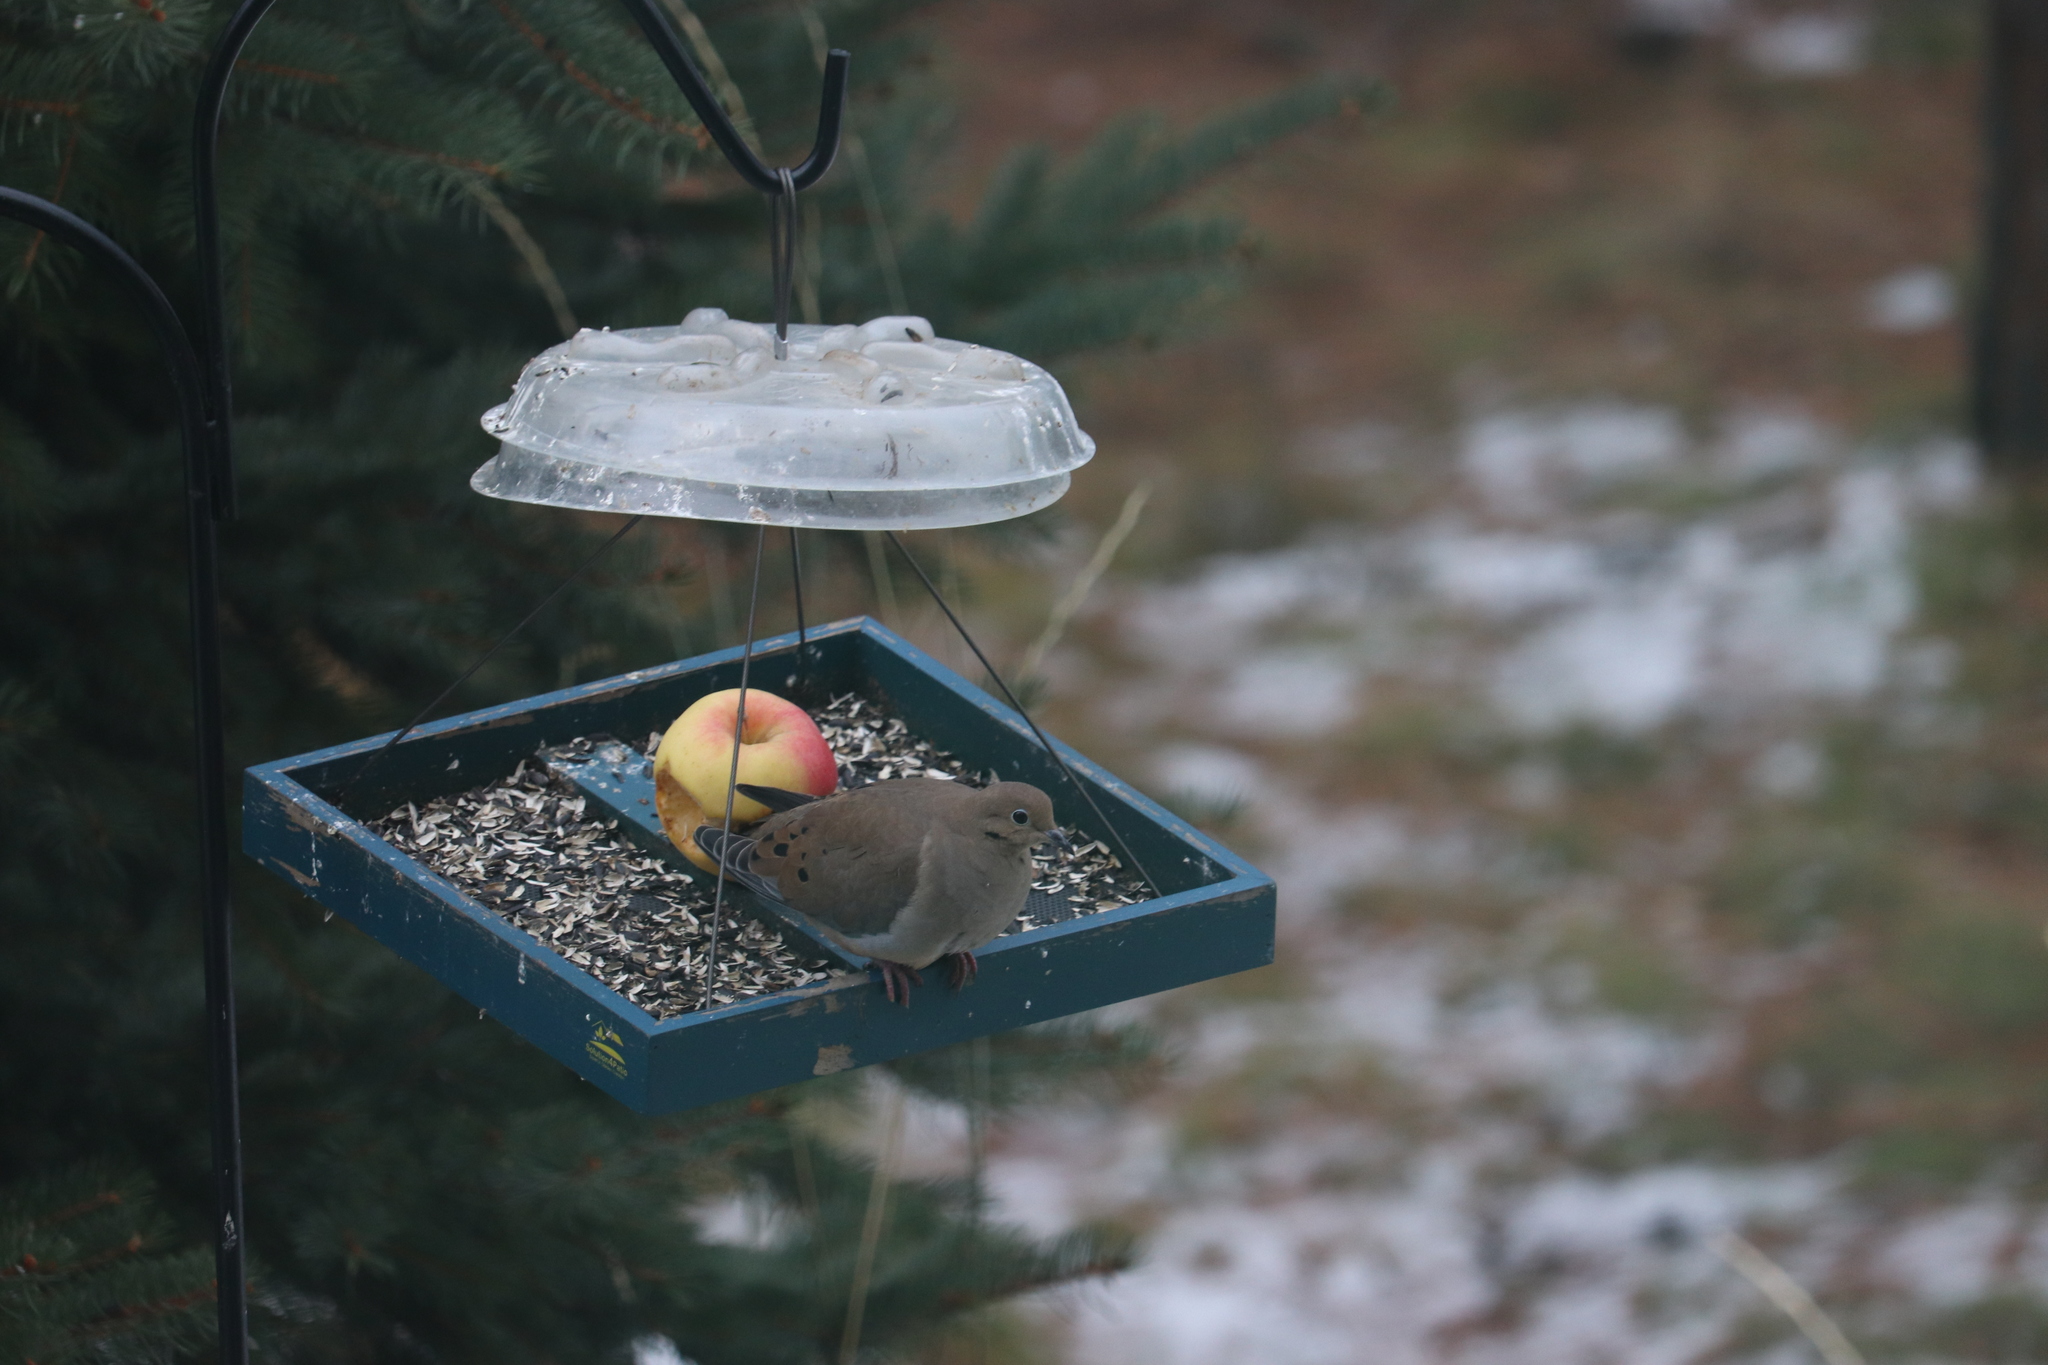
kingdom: Animalia
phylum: Chordata
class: Aves
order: Columbiformes
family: Columbidae
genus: Zenaida
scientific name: Zenaida macroura
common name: Mourning dove
